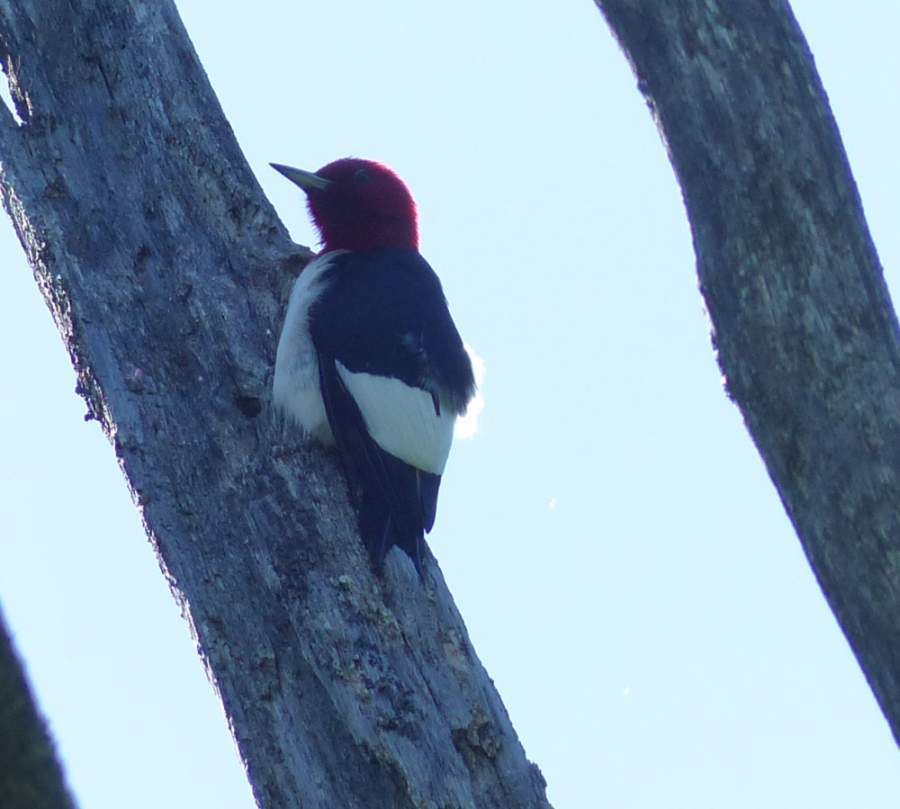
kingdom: Animalia
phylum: Chordata
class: Aves
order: Piciformes
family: Picidae
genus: Melanerpes
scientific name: Melanerpes erythrocephalus
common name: Red-headed woodpecker
